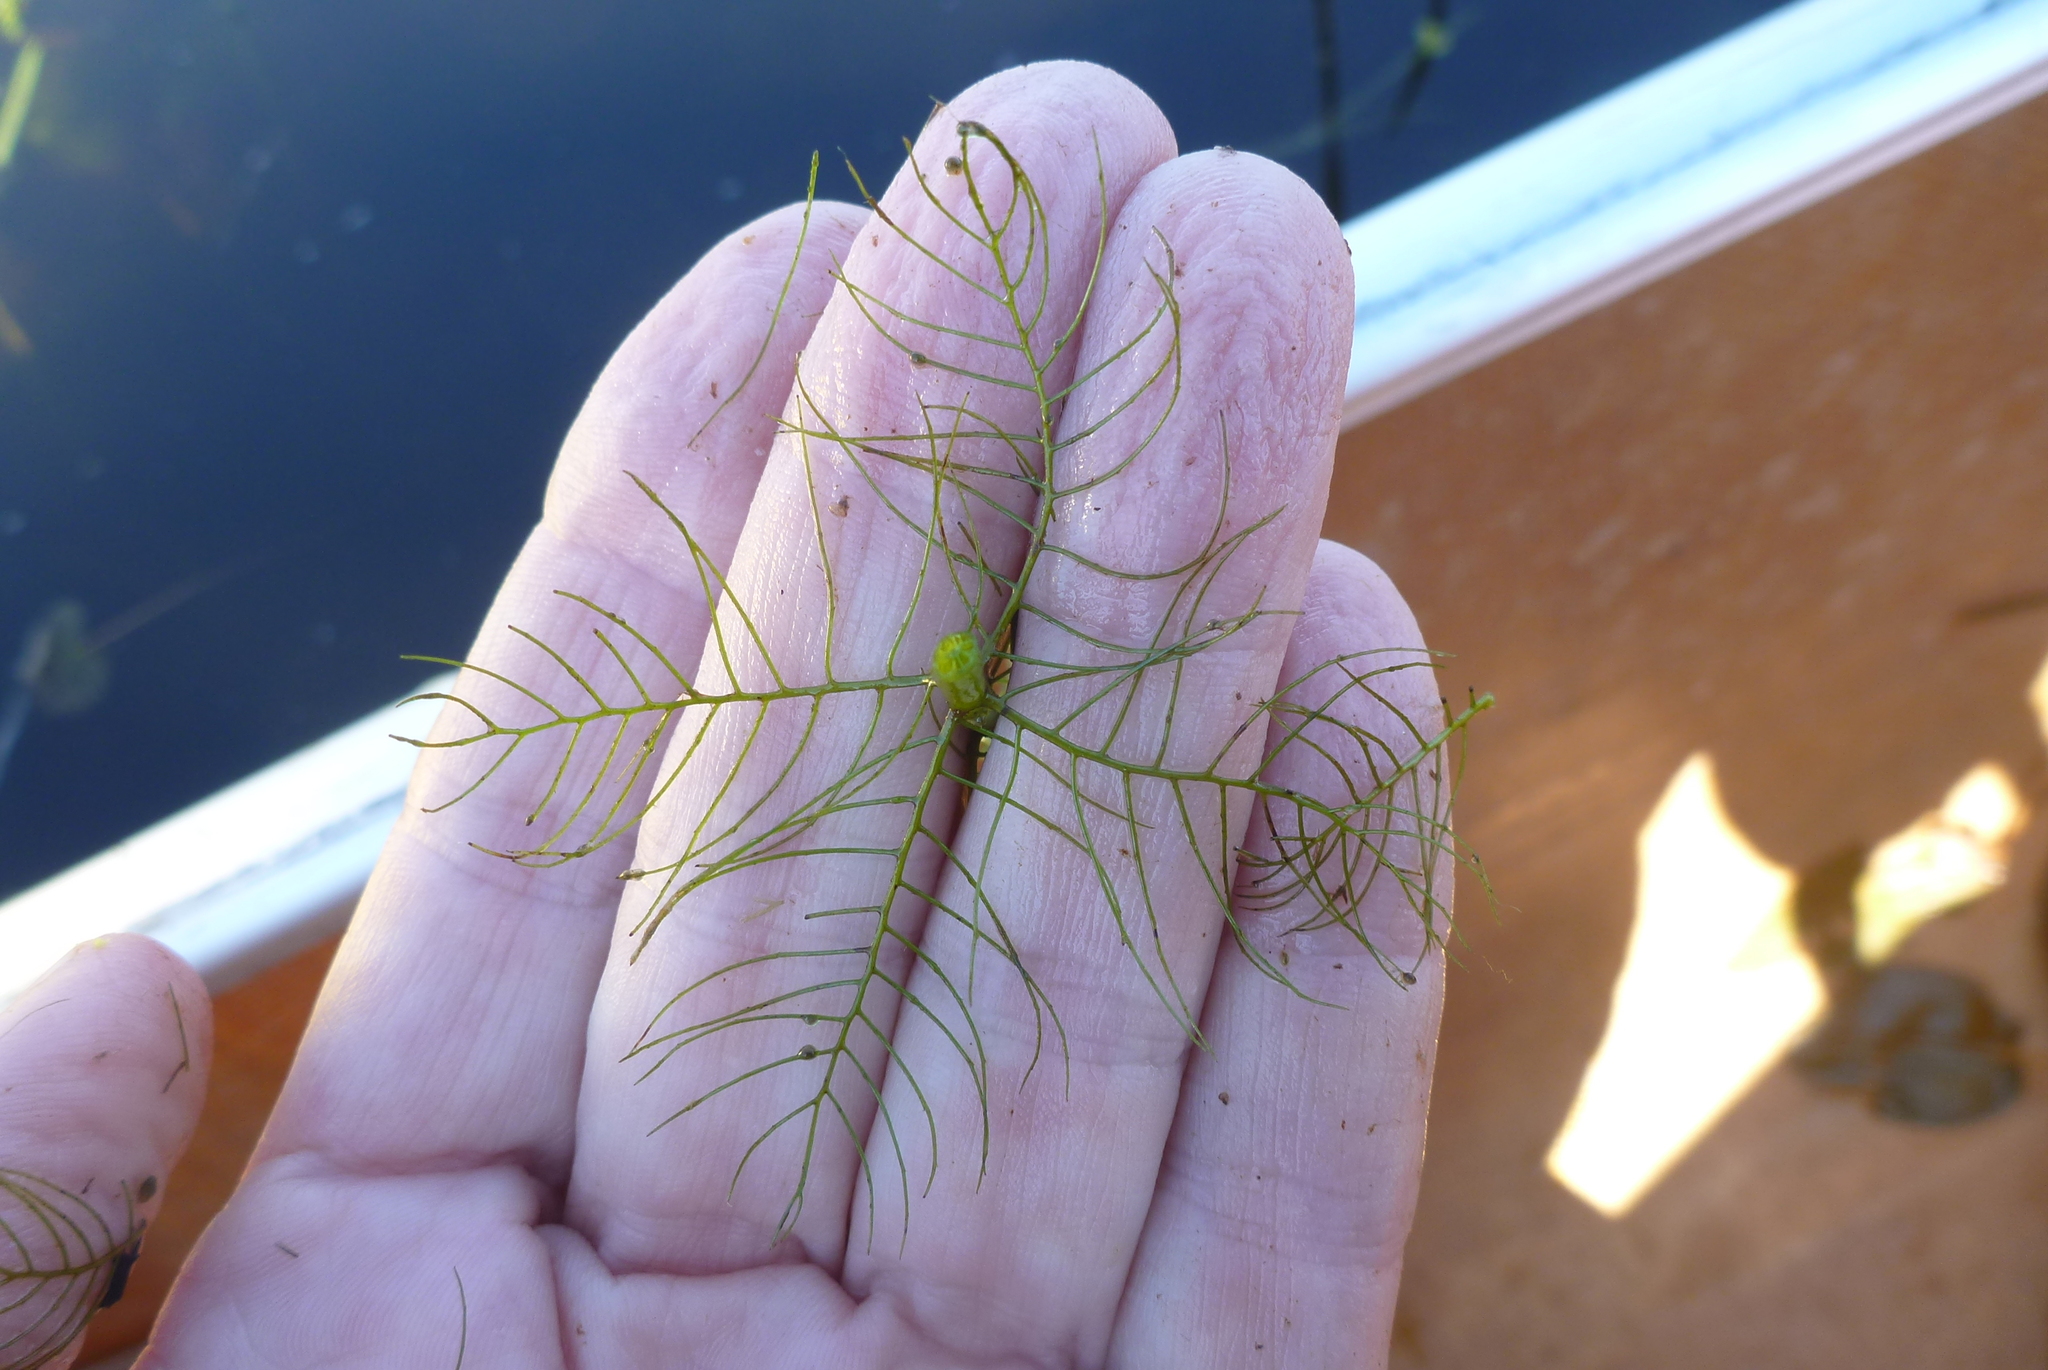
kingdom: Plantae
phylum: Tracheophyta
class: Magnoliopsida
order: Saxifragales
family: Haloragaceae
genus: Myriophyllum
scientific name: Myriophyllum verticillatum
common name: Whorled water-milfoil
